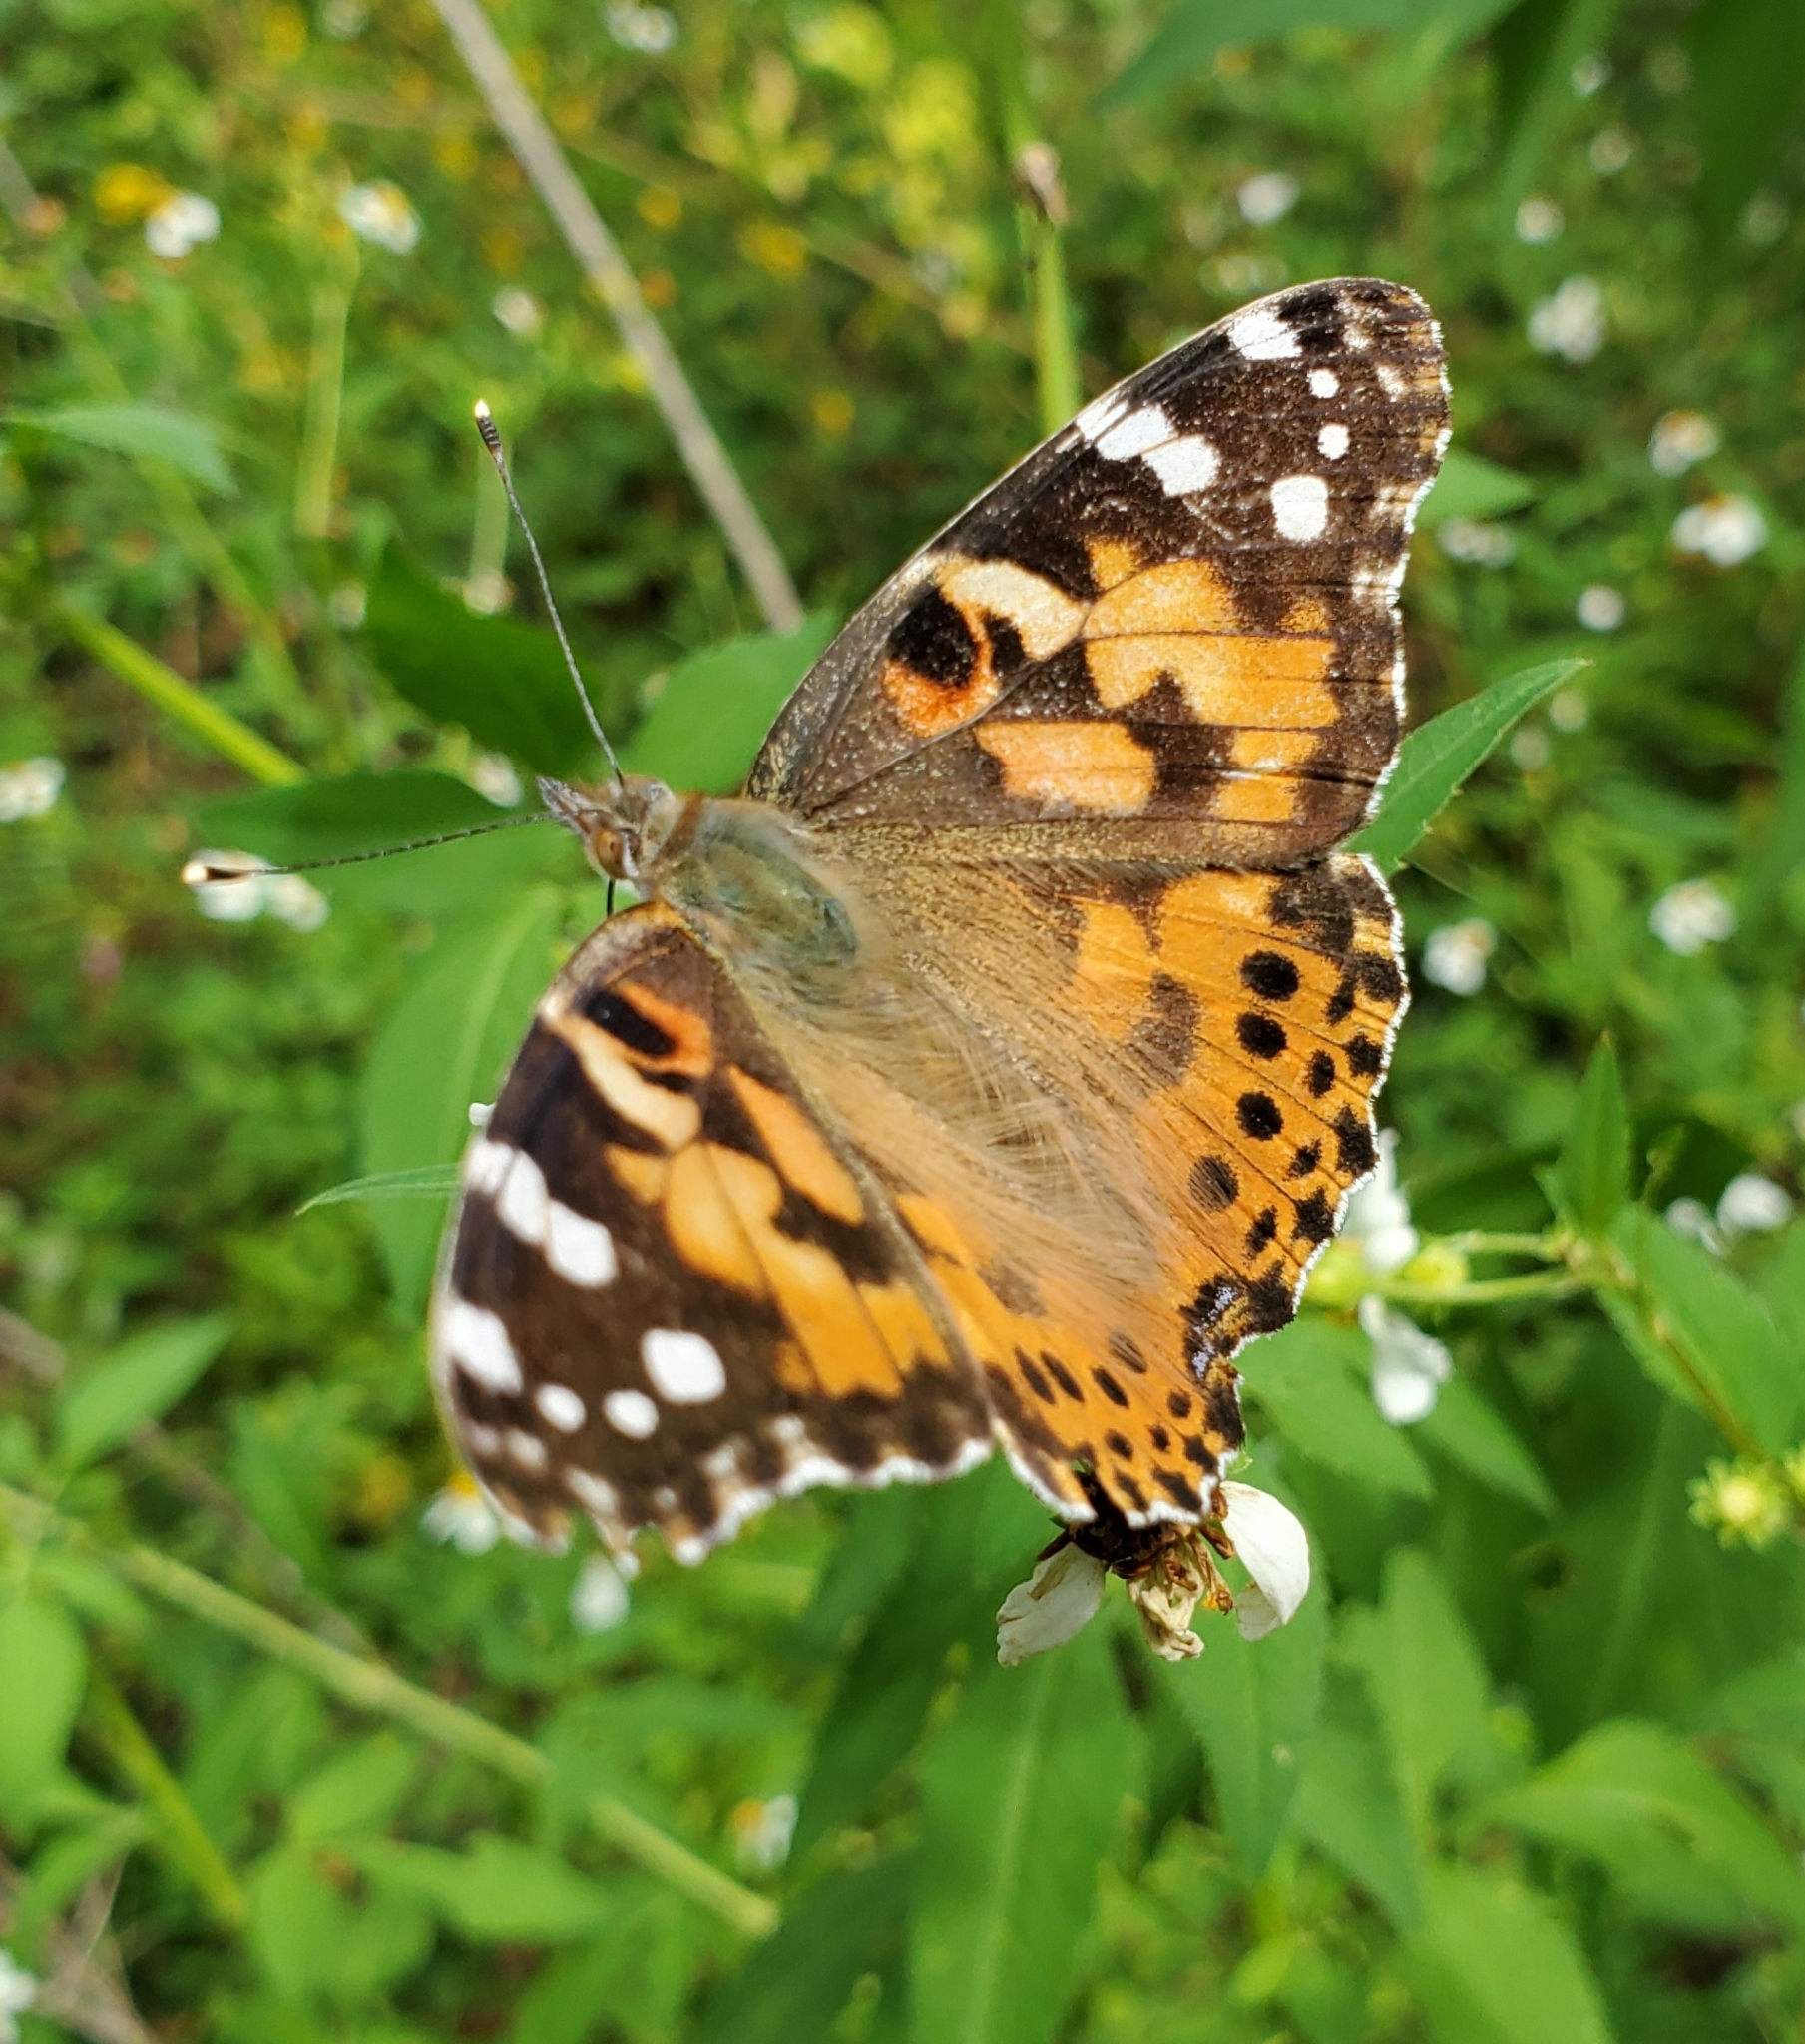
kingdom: Animalia
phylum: Arthropoda
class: Insecta
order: Lepidoptera
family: Nymphalidae
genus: Vanessa
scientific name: Vanessa cardui
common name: Painted lady
